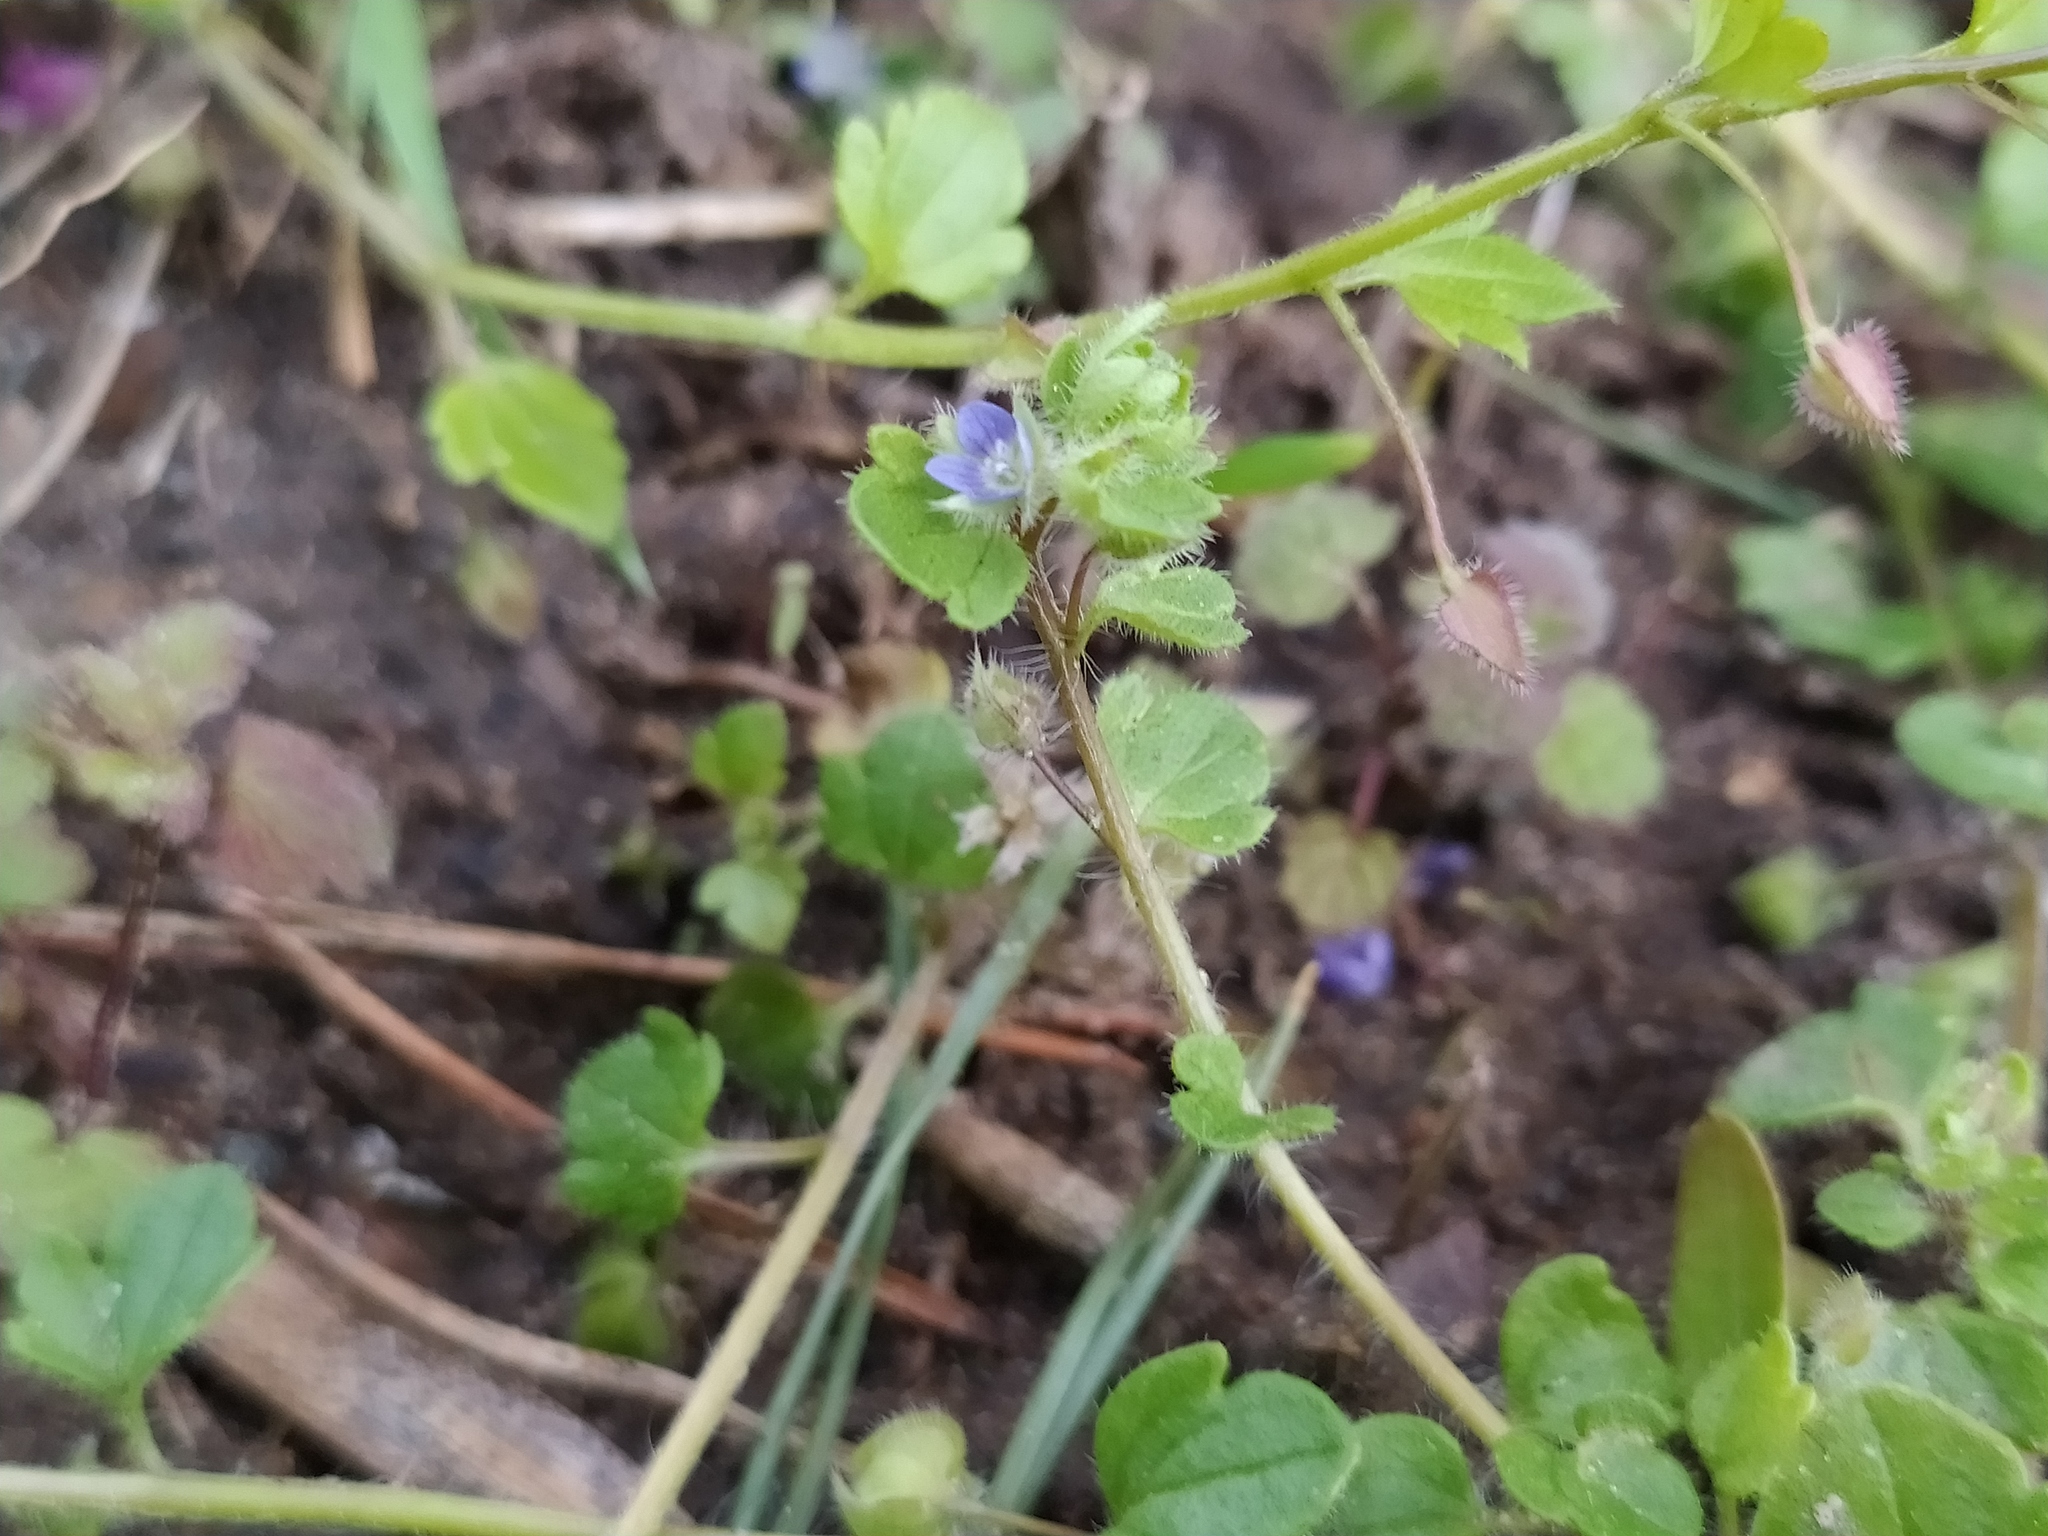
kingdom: Plantae
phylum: Tracheophyta
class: Magnoliopsida
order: Lamiales
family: Plantaginaceae
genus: Veronica
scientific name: Veronica hederifolia
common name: Ivy-leaved speedwell
